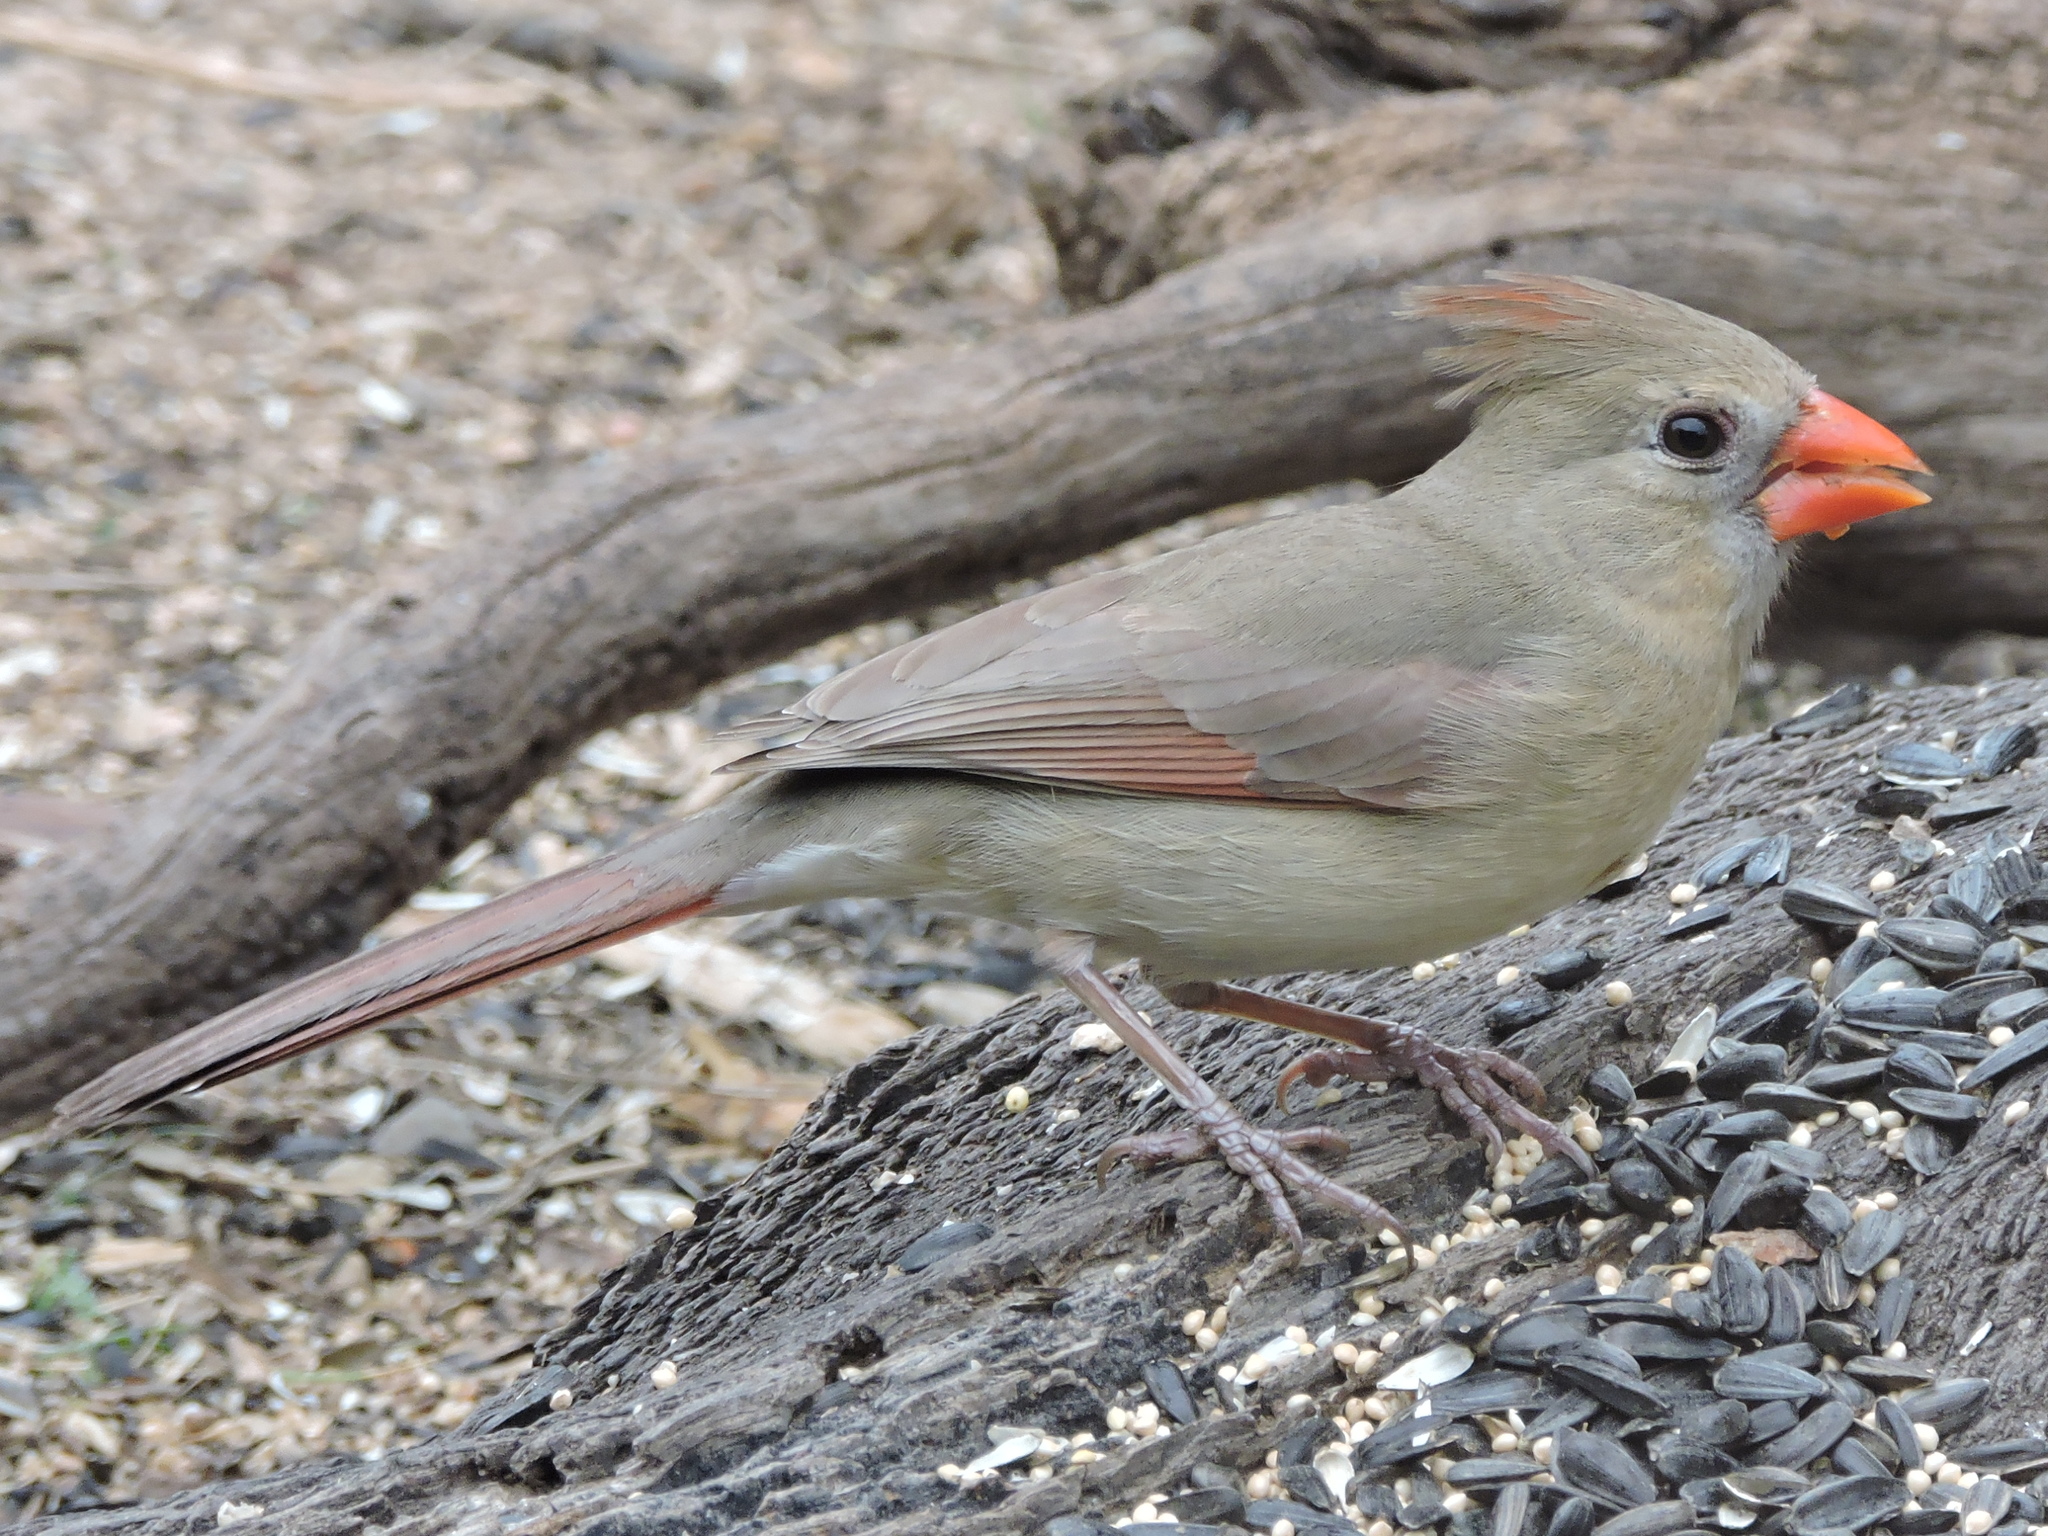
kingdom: Animalia
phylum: Chordata
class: Aves
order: Passeriformes
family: Cardinalidae
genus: Cardinalis
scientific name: Cardinalis cardinalis
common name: Northern cardinal
